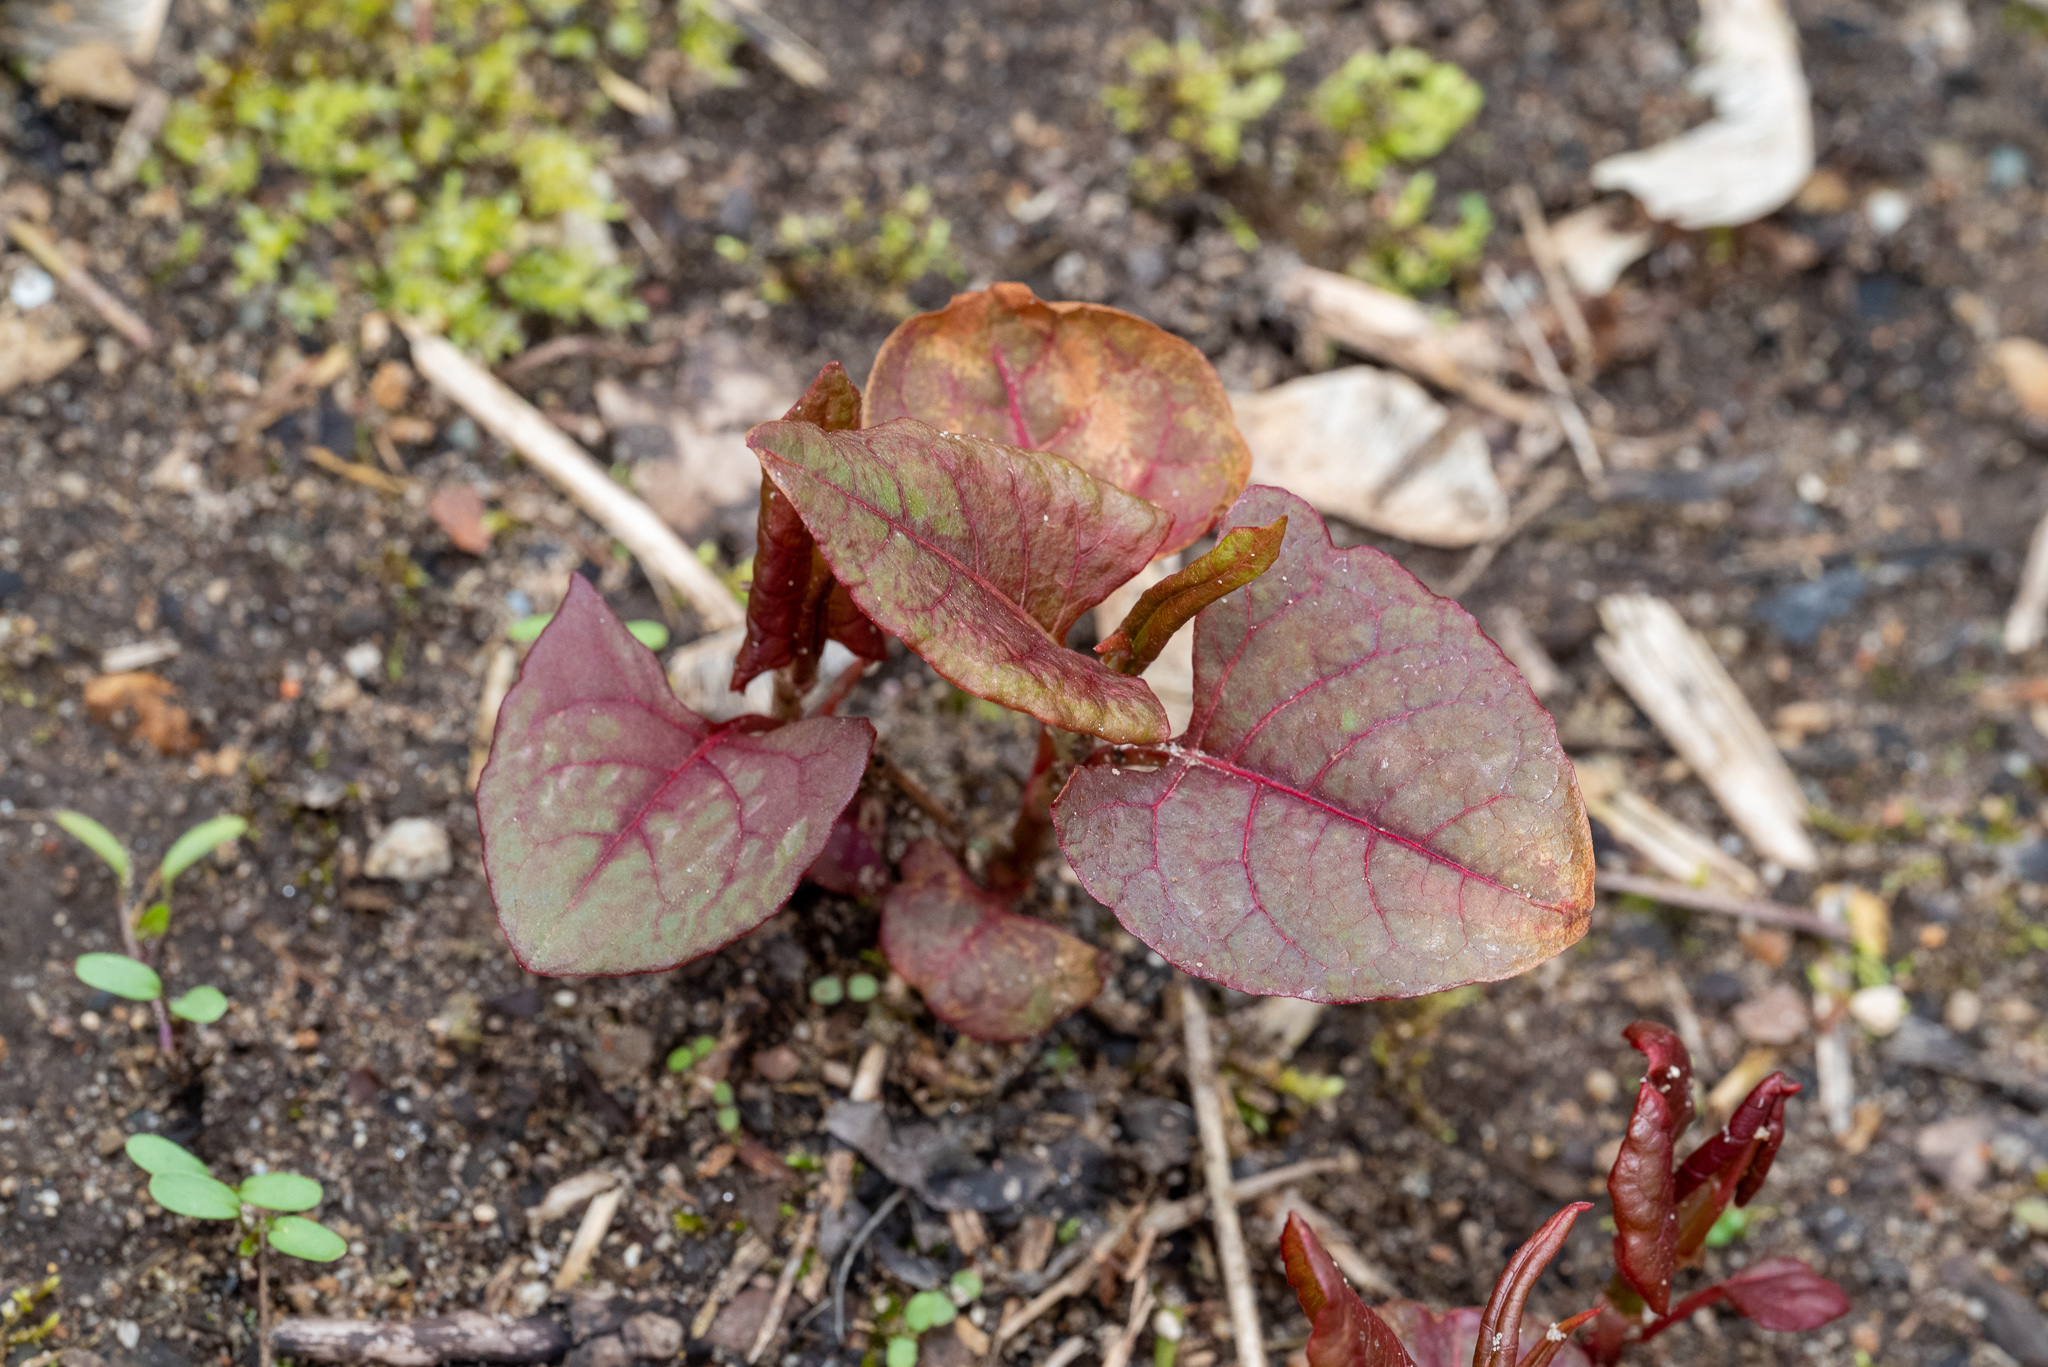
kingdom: Plantae
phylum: Tracheophyta
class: Magnoliopsida
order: Caryophyllales
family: Polygonaceae
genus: Reynoutria
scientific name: Reynoutria japonica
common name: Japanese knotweed
